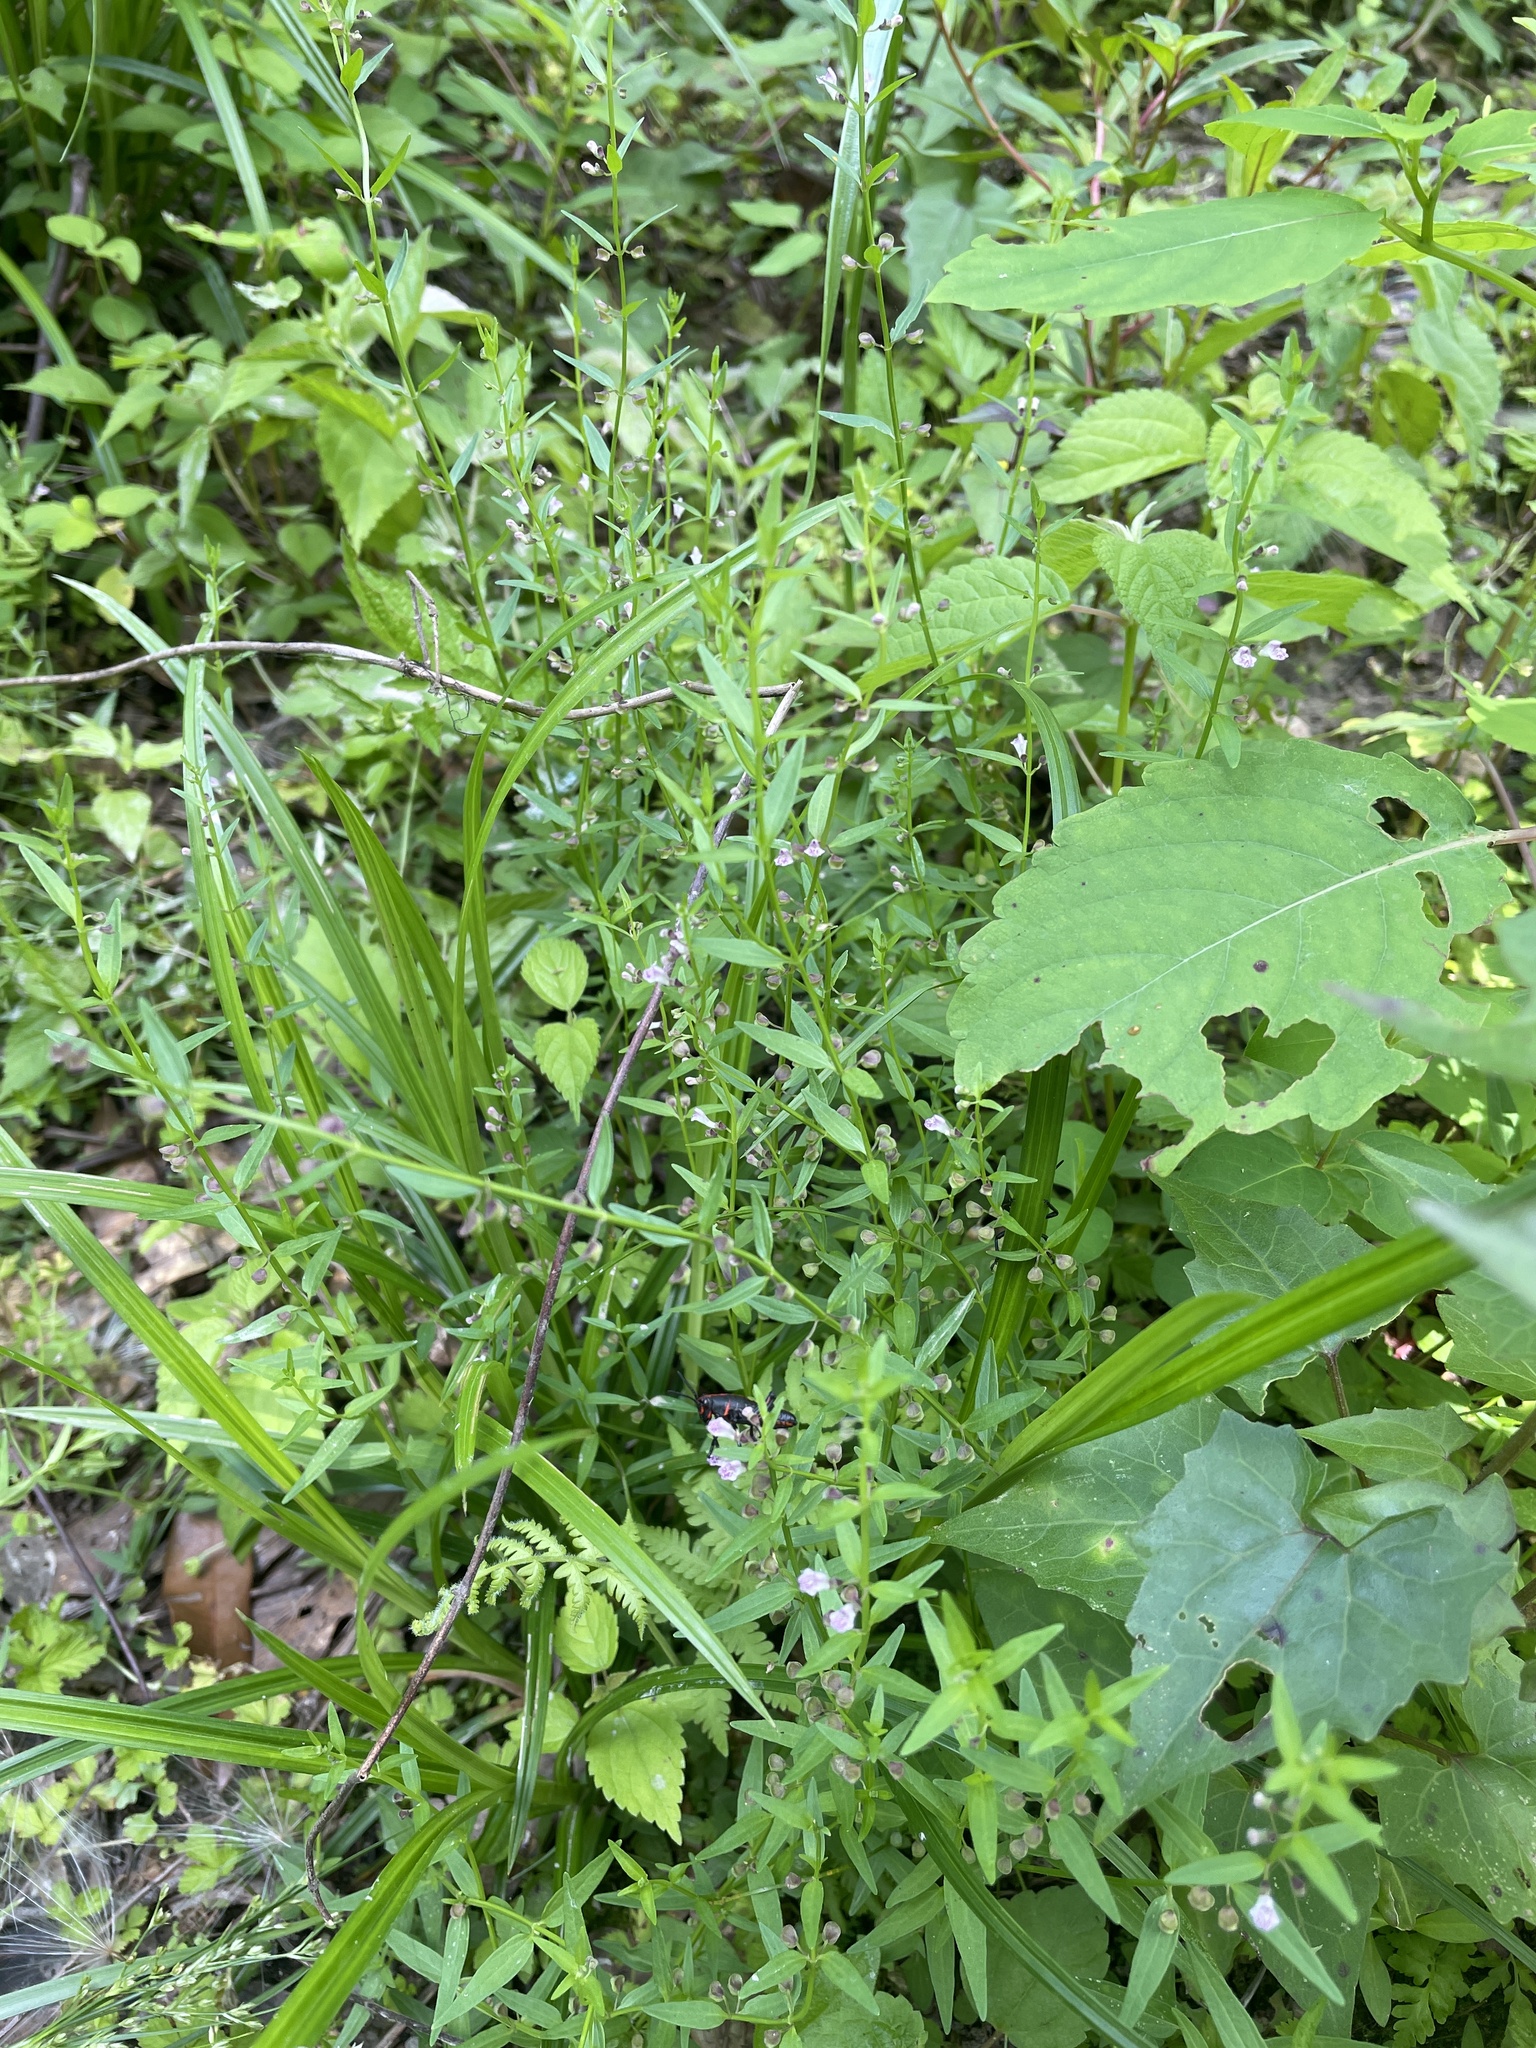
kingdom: Plantae
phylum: Tracheophyta
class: Magnoliopsida
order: Lamiales
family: Lamiaceae
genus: Scutellaria
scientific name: Scutellaria racemosa
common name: South american skullcap
